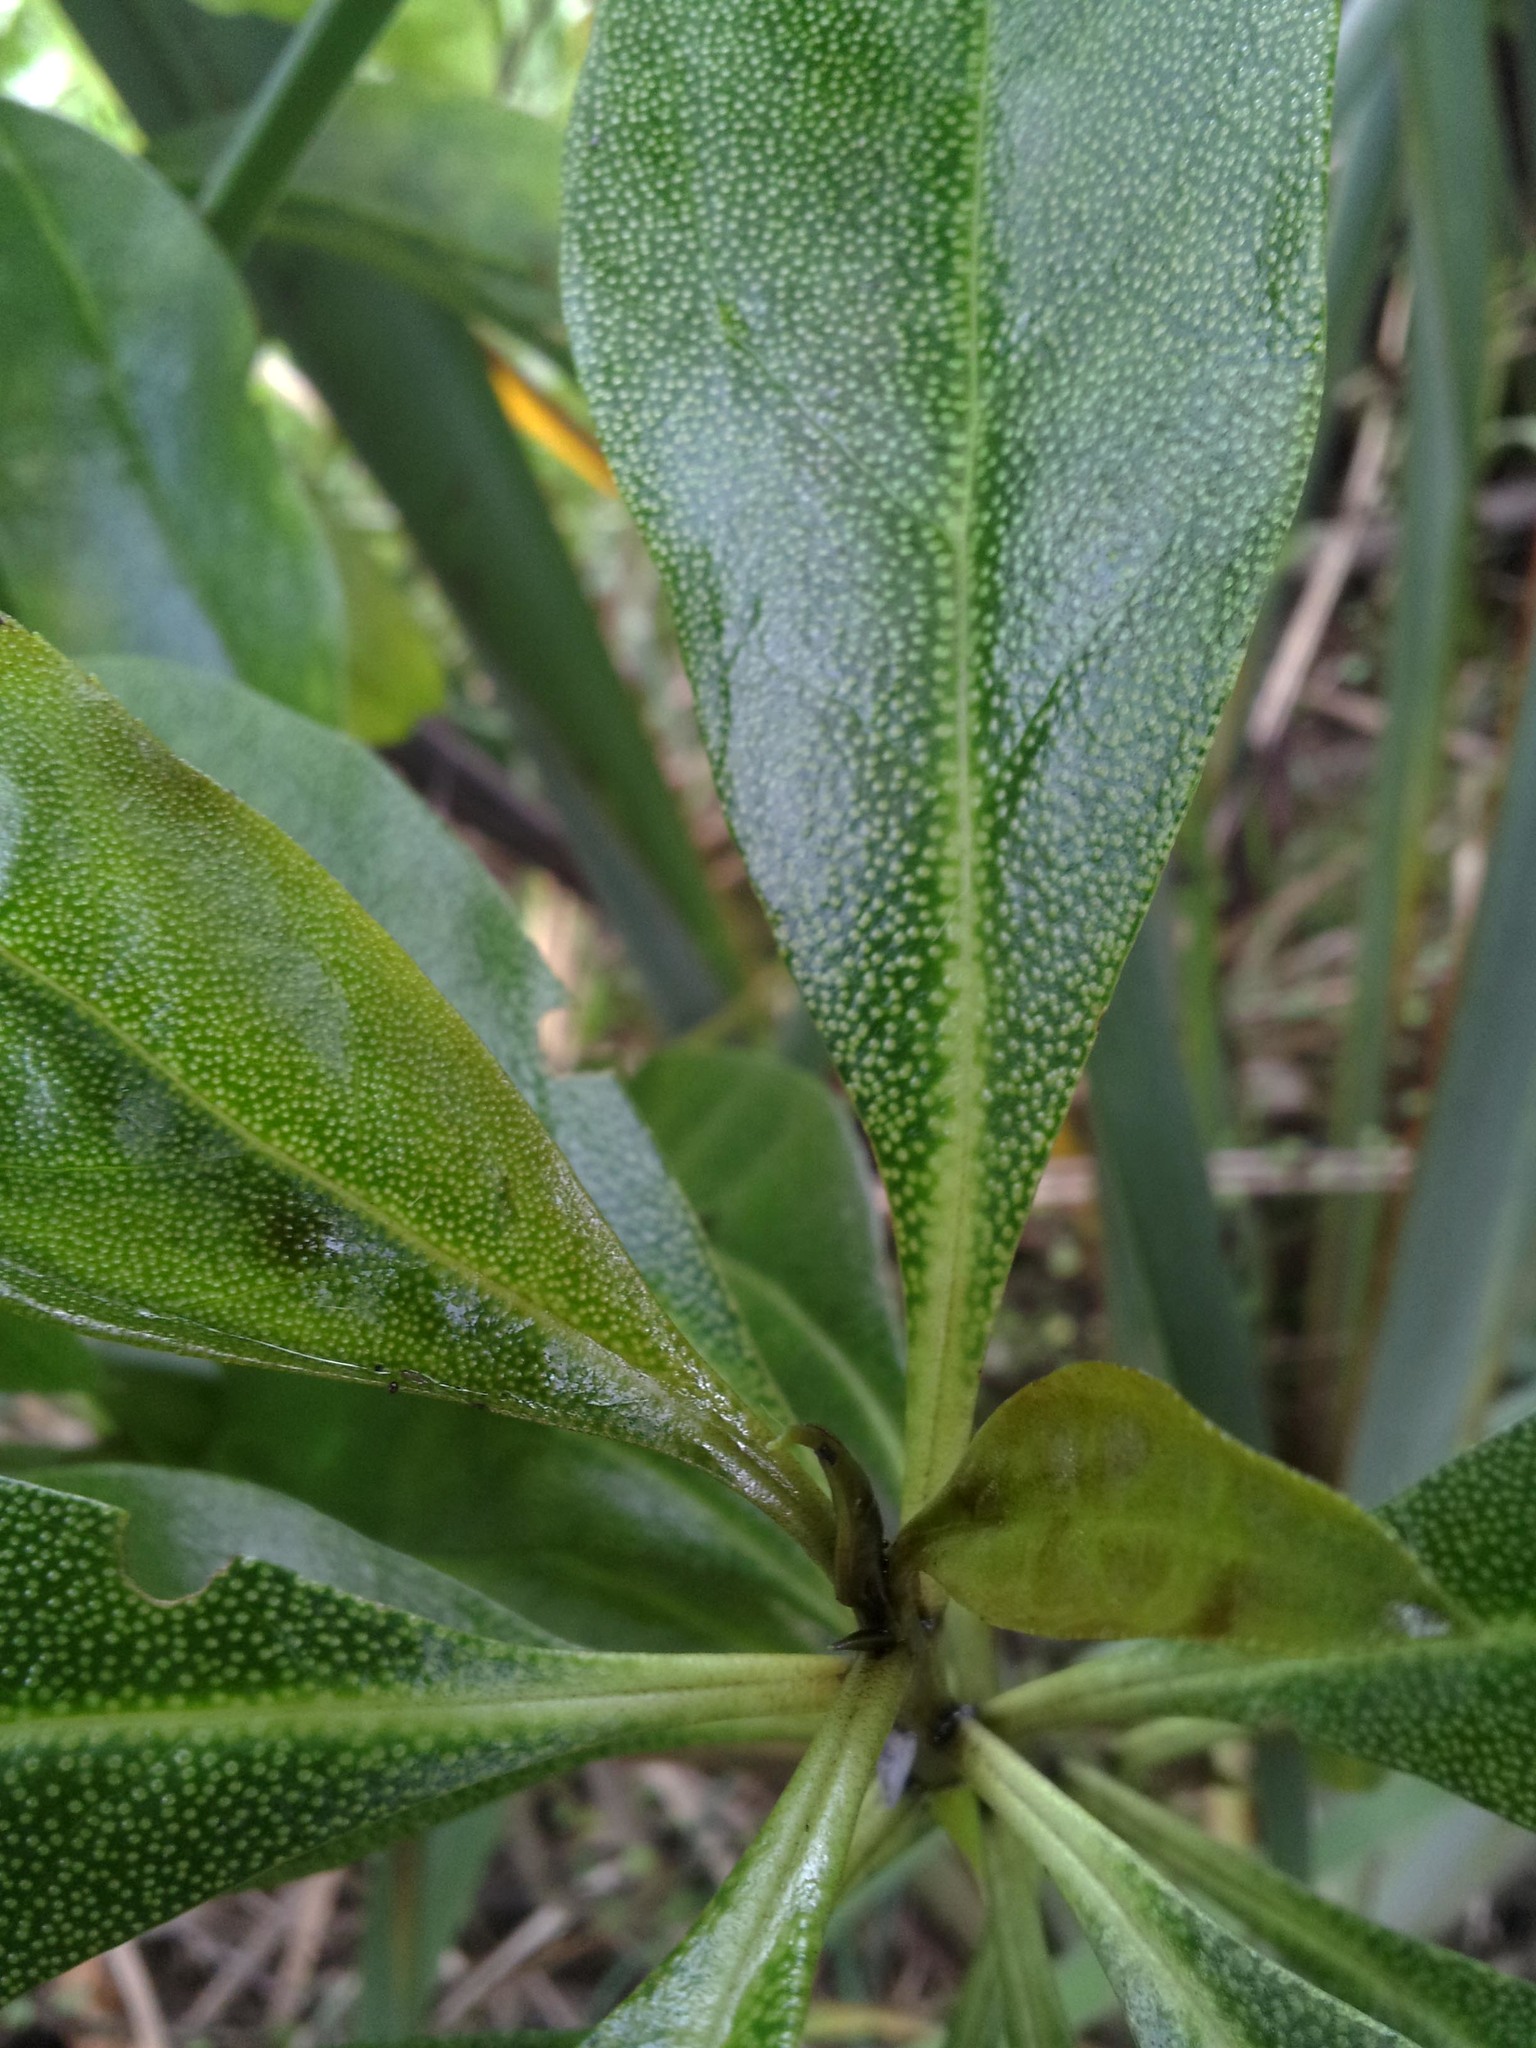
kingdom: Plantae
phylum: Tracheophyta
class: Magnoliopsida
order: Lamiales
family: Scrophulariaceae
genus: Myoporum
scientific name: Myoporum laetum
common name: Ngaio tree
